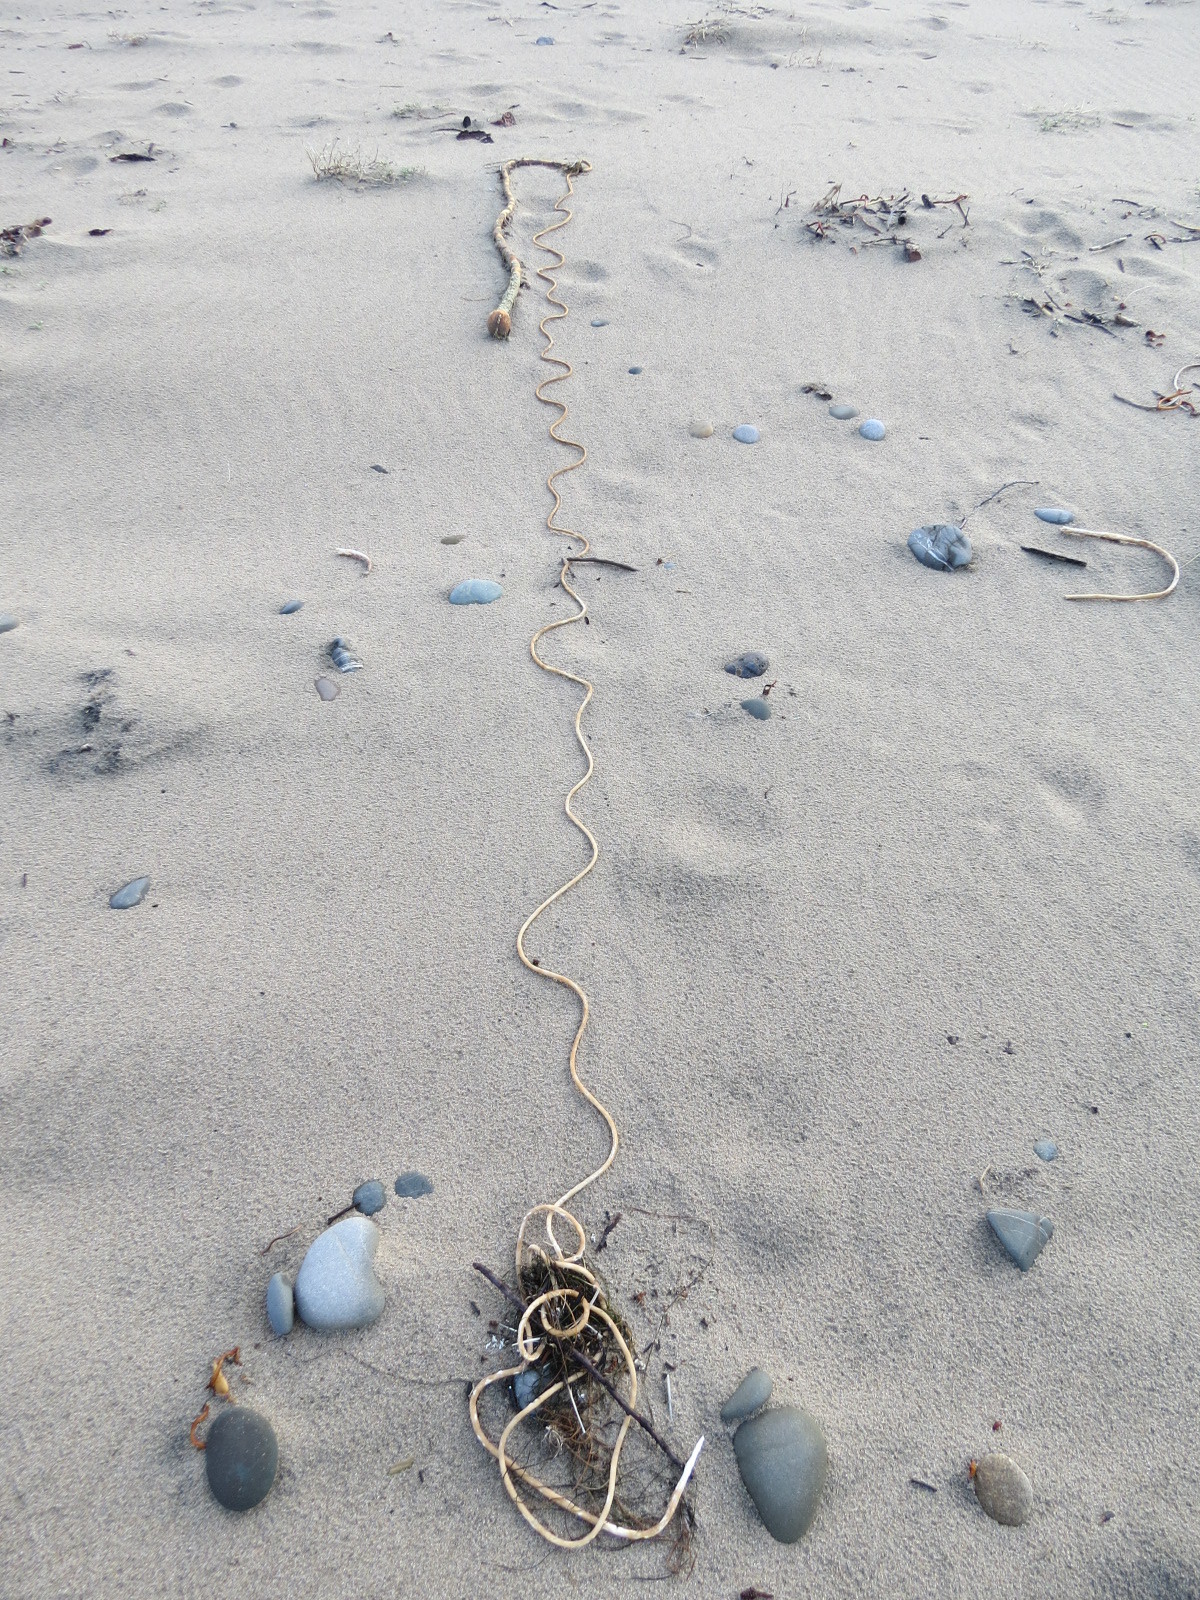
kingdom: Chromista
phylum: Ochrophyta
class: Phaeophyceae
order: Laminariales
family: Laminariaceae
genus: Nereocystis
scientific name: Nereocystis luetkeana
